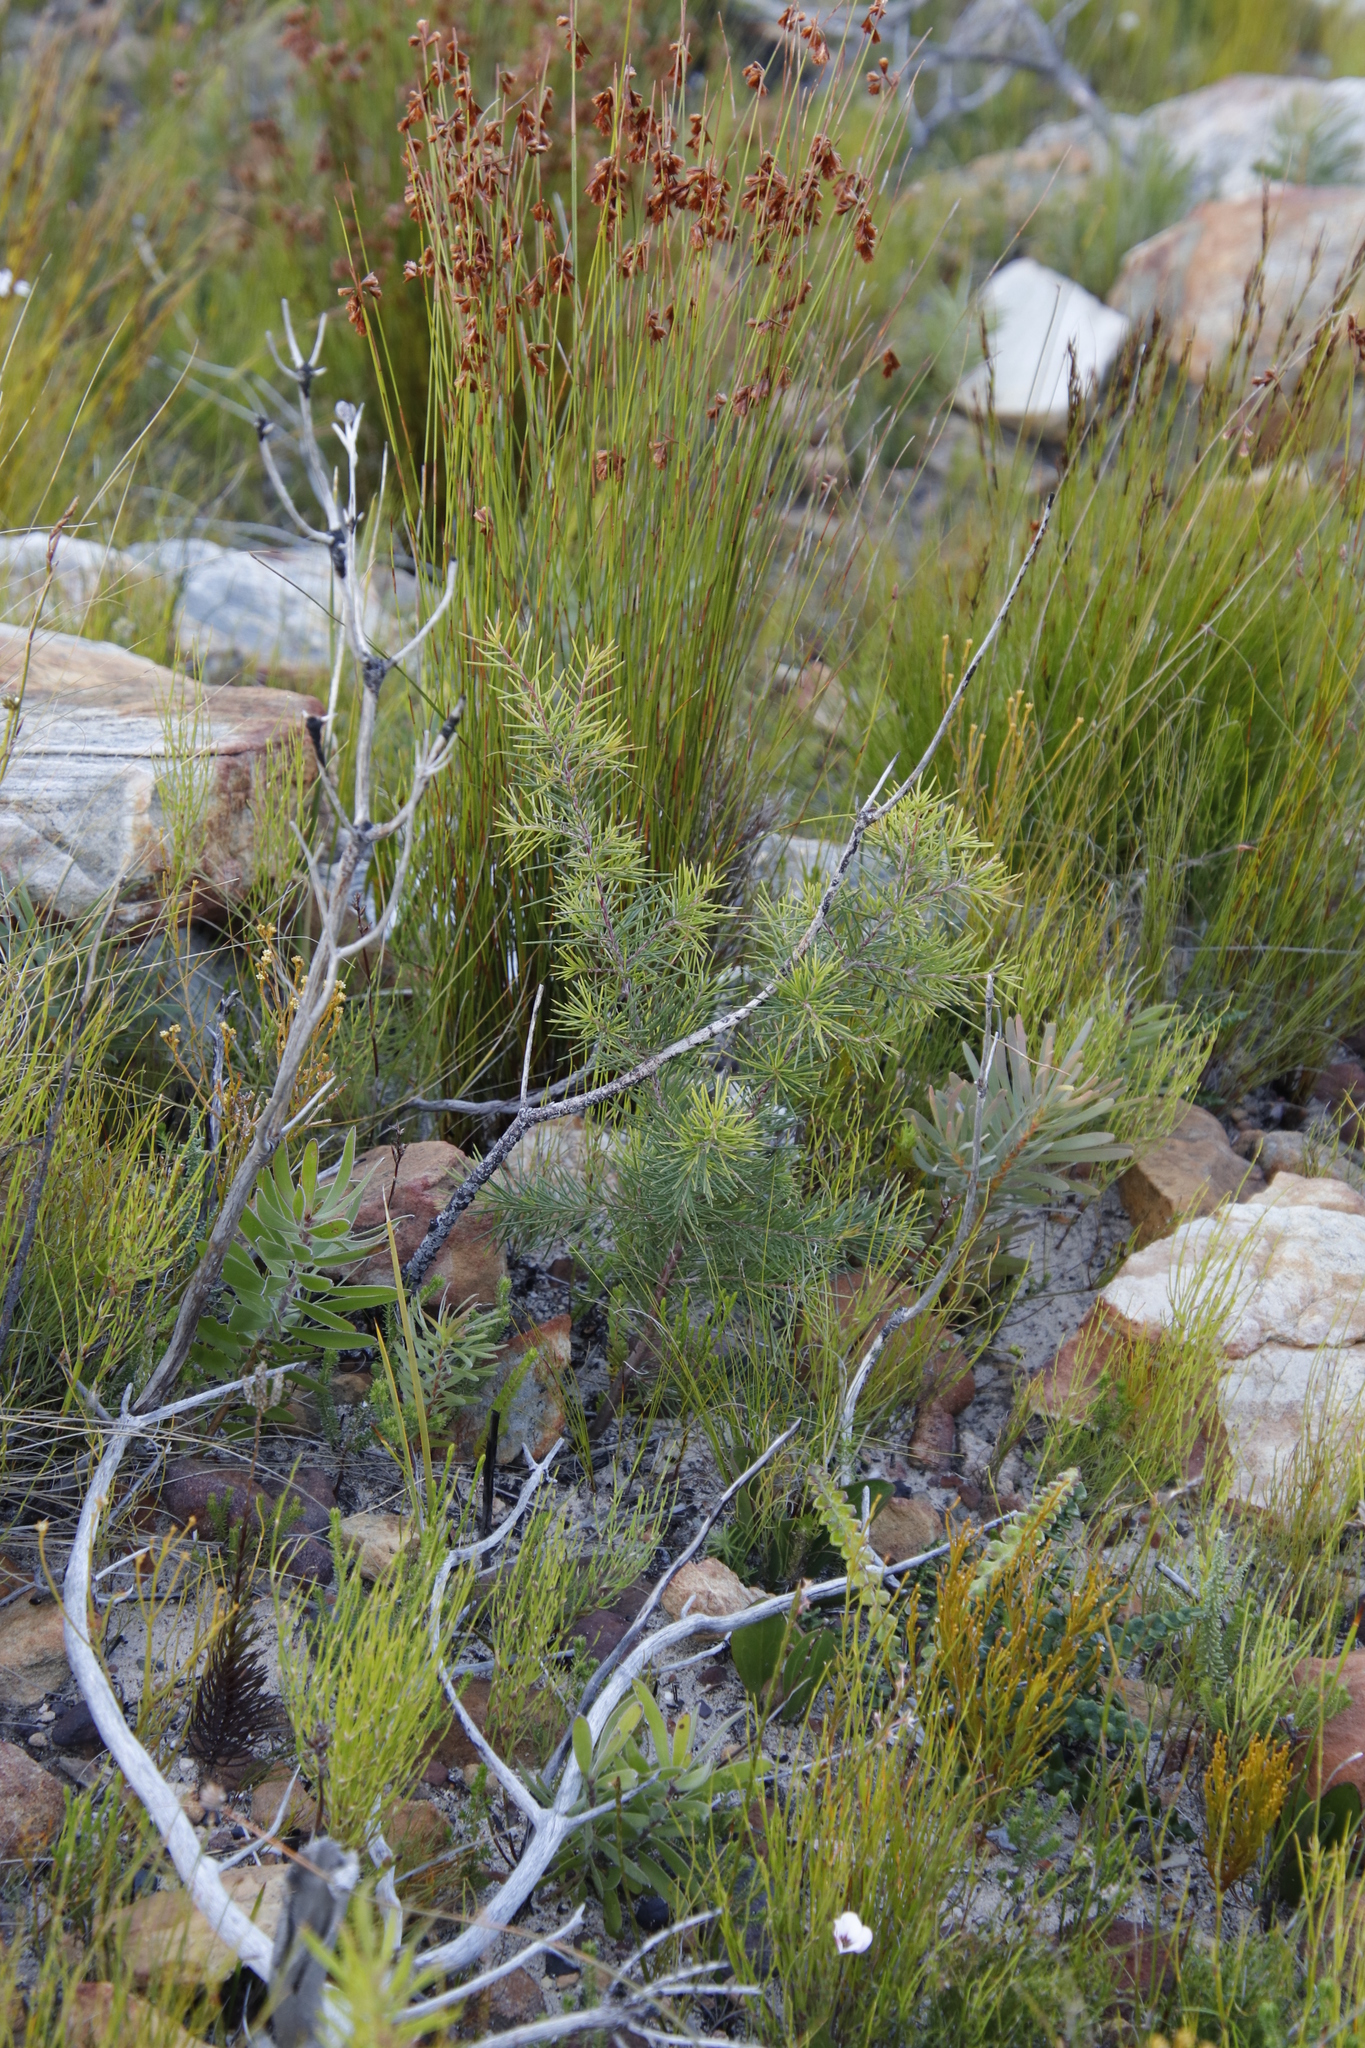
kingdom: Plantae
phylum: Tracheophyta
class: Magnoliopsida
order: Proteales
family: Proteaceae
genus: Hakea
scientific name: Hakea sericea
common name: Needle bush
